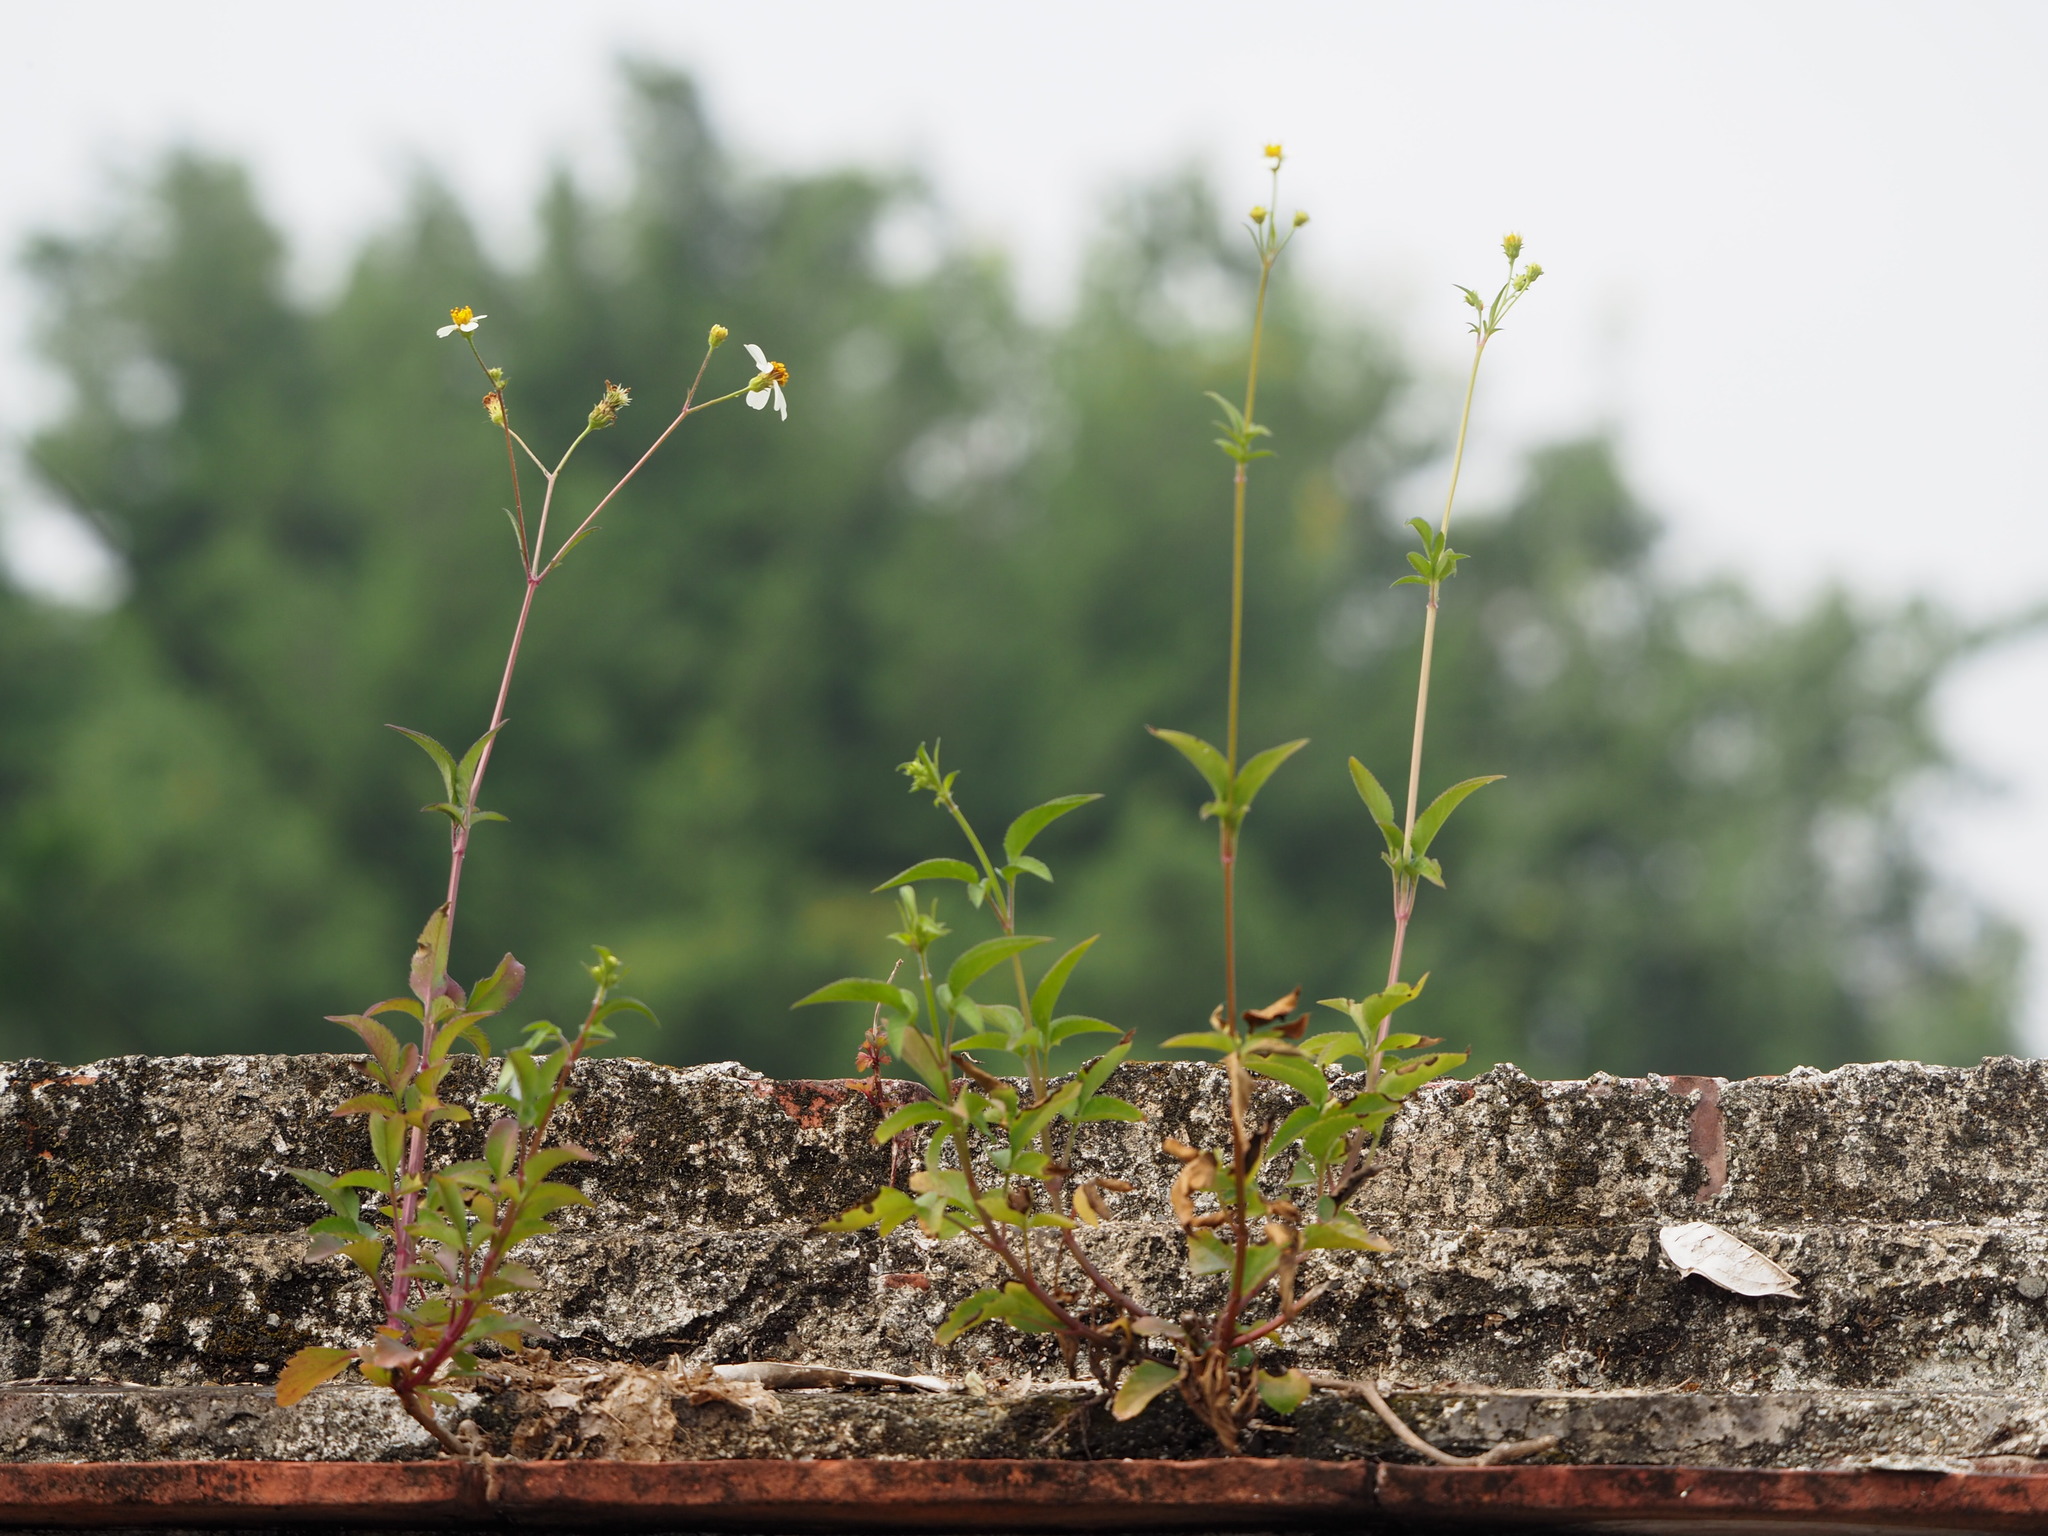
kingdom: Plantae
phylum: Tracheophyta
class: Magnoliopsida
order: Asterales
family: Asteraceae
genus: Bidens
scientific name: Bidens alba
